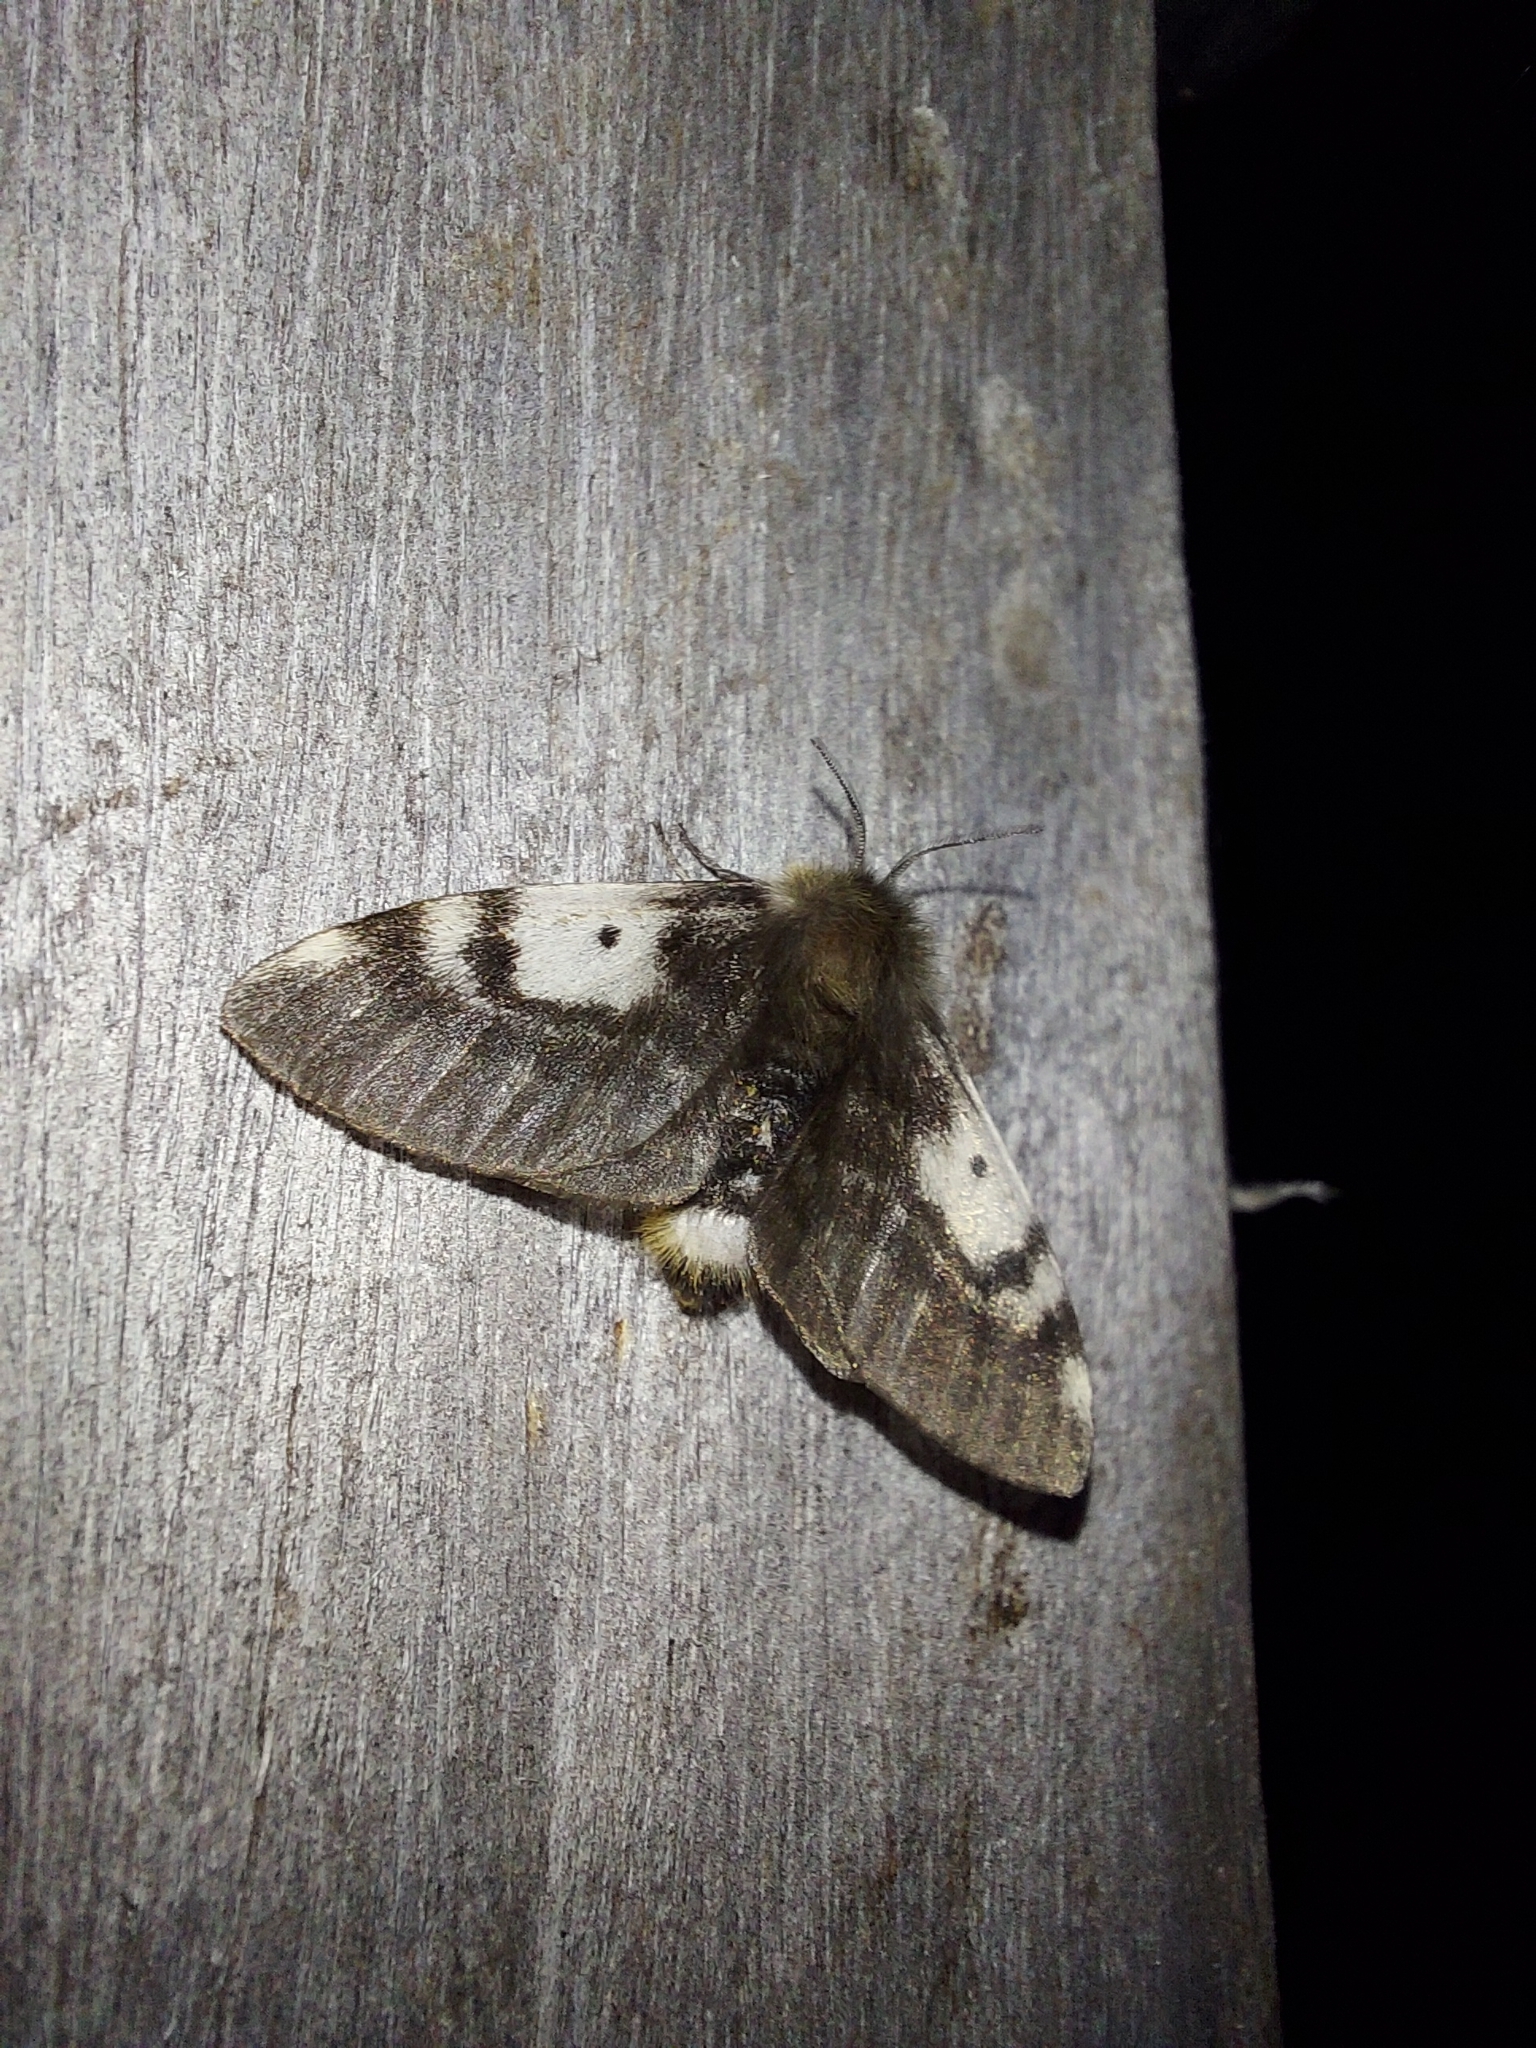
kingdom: Animalia
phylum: Arthropoda
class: Insecta
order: Lepidoptera
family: Anthelidae
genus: Nataxa
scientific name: Nataxa flavescens
